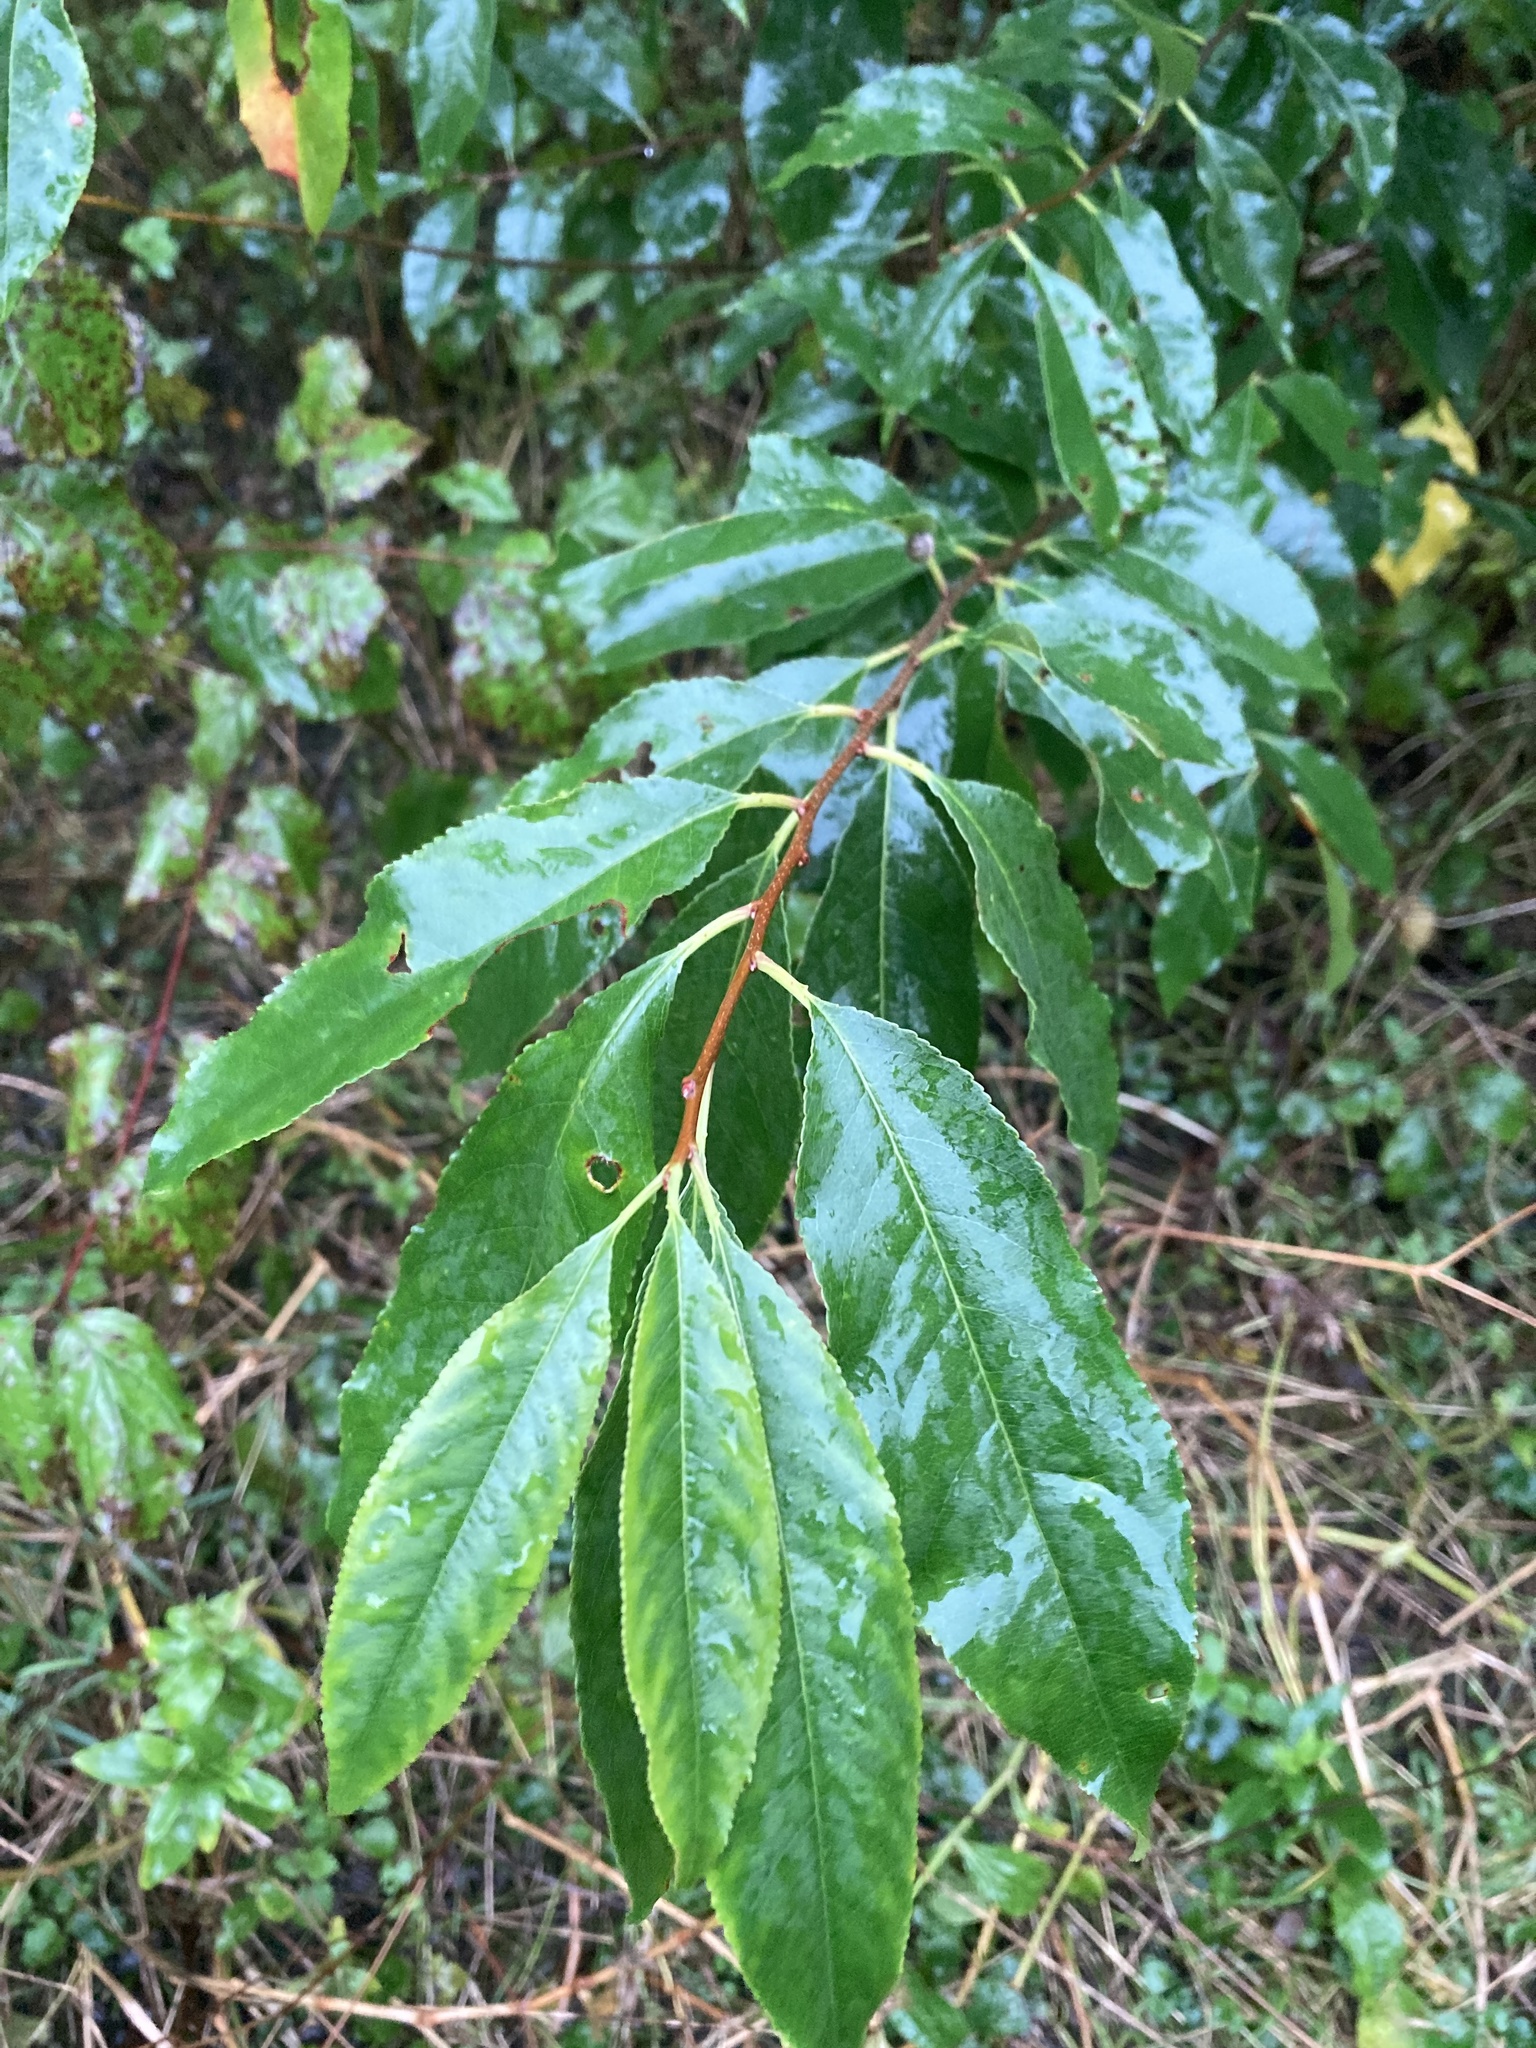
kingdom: Plantae
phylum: Tracheophyta
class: Magnoliopsida
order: Rosales
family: Rosaceae
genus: Prunus
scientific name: Prunus serotina
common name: Black cherry
